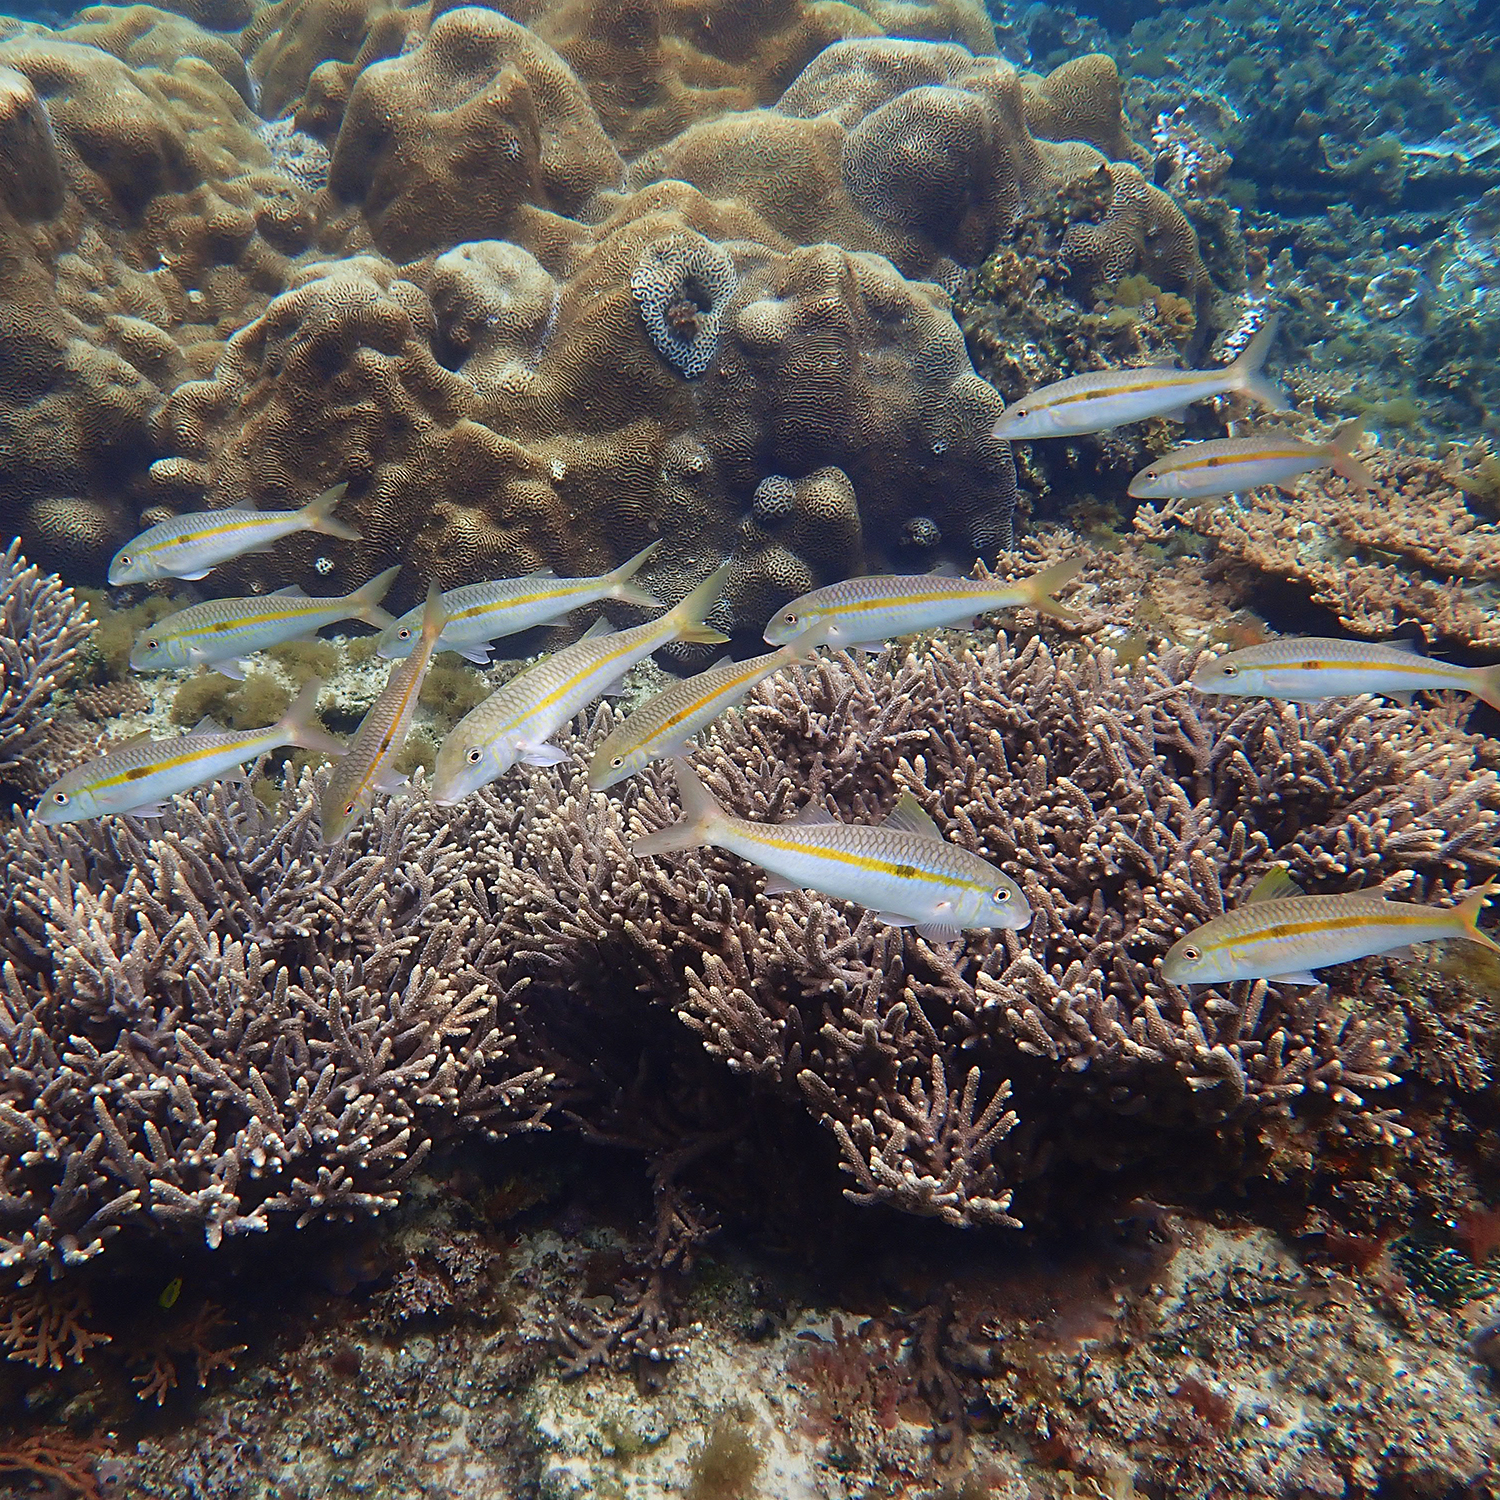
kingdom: Animalia
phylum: Chordata
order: Perciformes
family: Mullidae
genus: Mulloidichthys
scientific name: Mulloidichthys flavolineatus
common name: Yellowstripe goatfish
